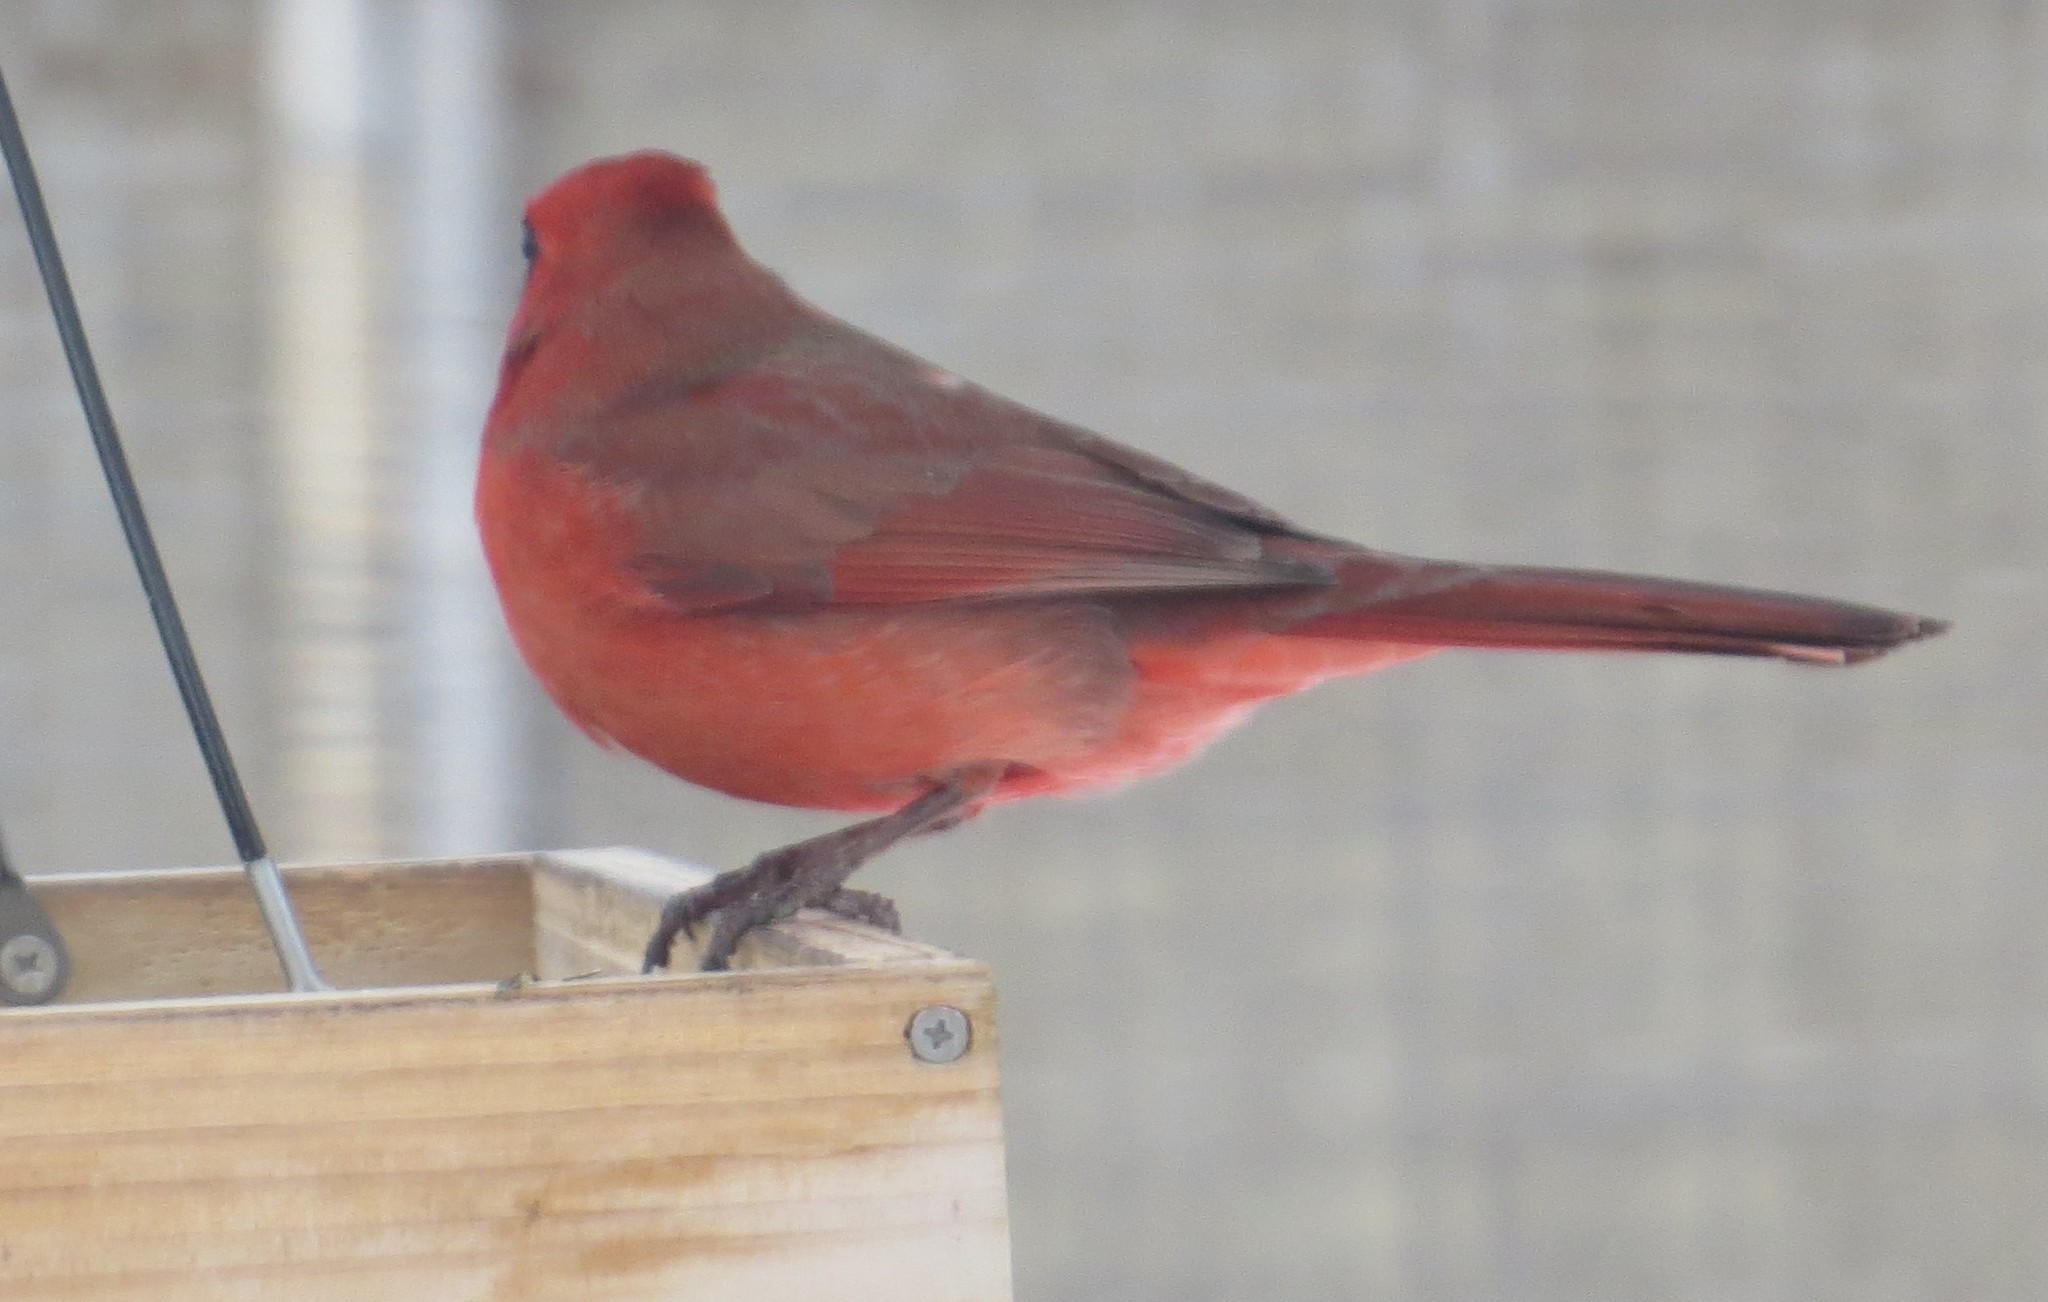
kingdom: Animalia
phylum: Chordata
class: Aves
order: Passeriformes
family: Cardinalidae
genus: Cardinalis
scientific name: Cardinalis cardinalis
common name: Northern cardinal
